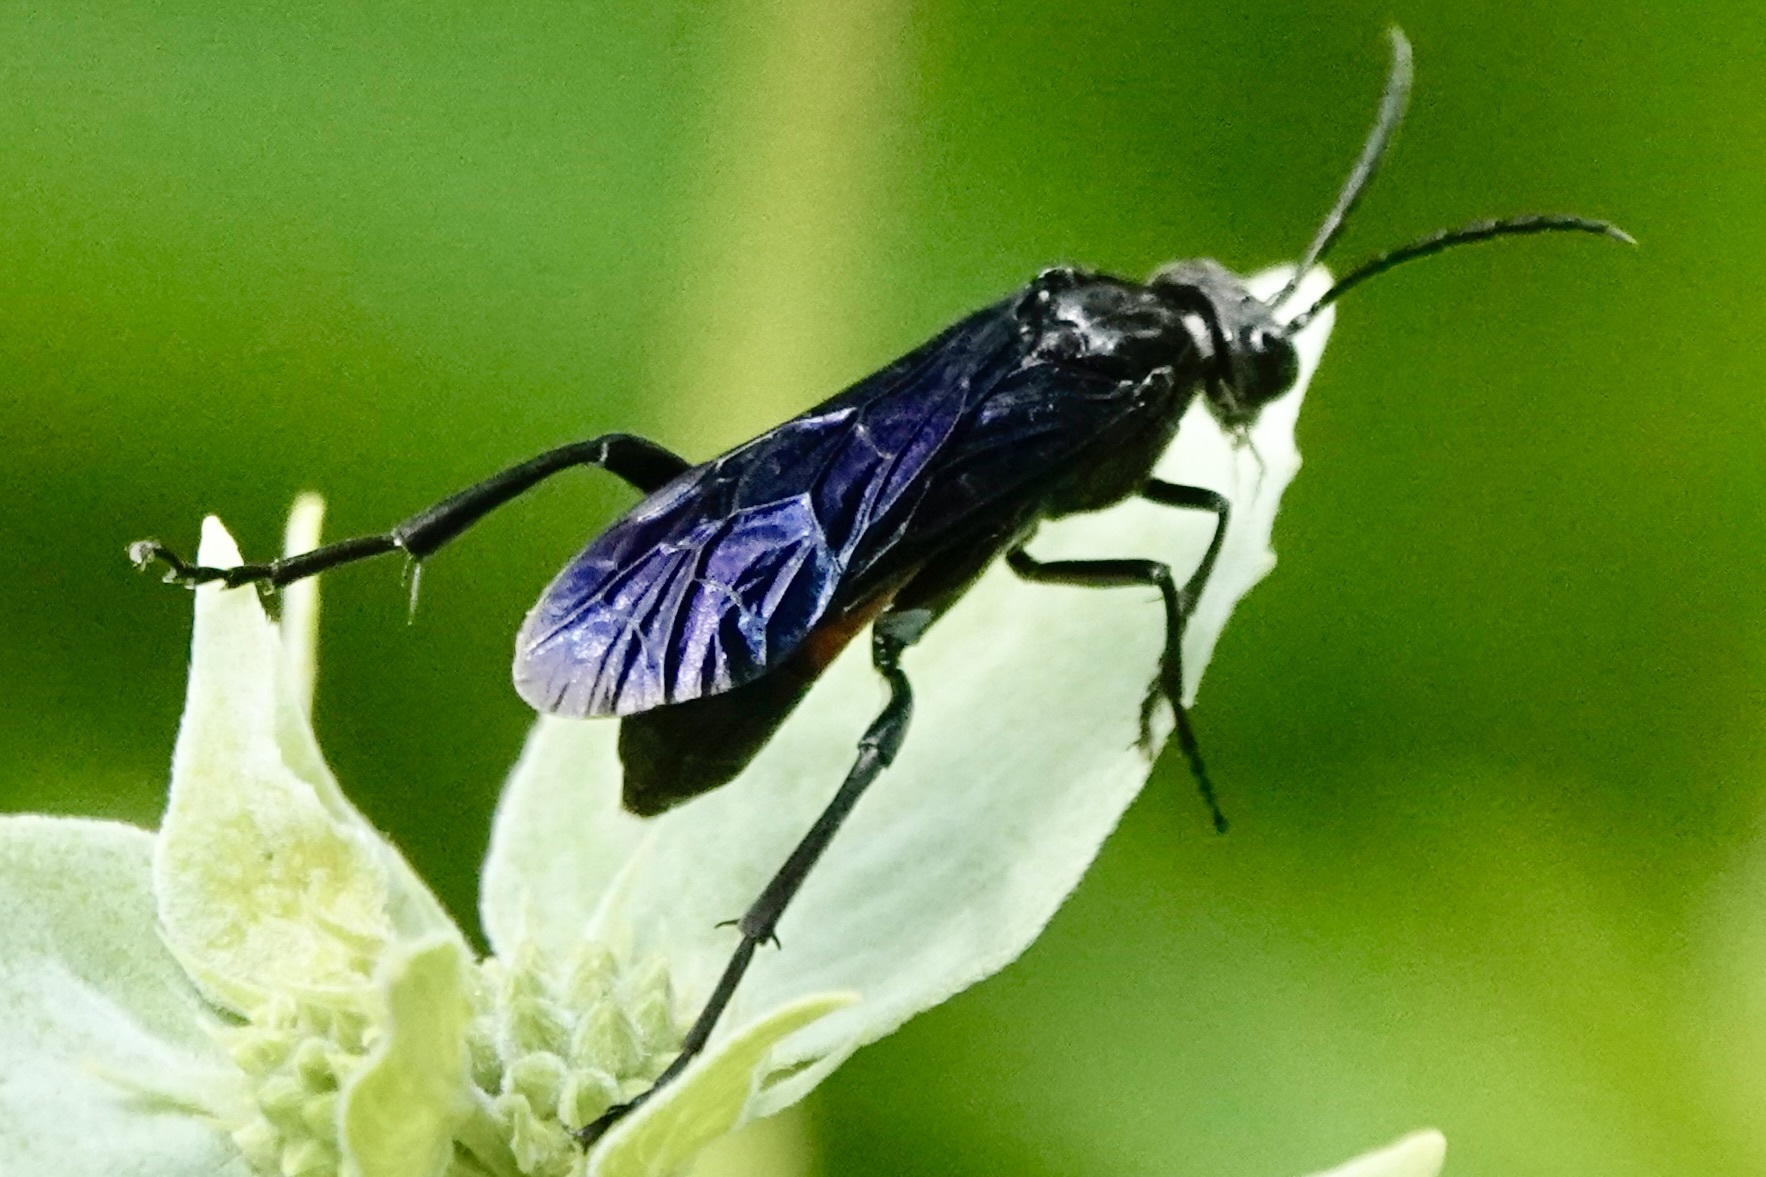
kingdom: Animalia
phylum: Arthropoda
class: Insecta
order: Hymenoptera
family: Tenthredinidae
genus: Macrophya
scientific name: Macrophya cinctula
